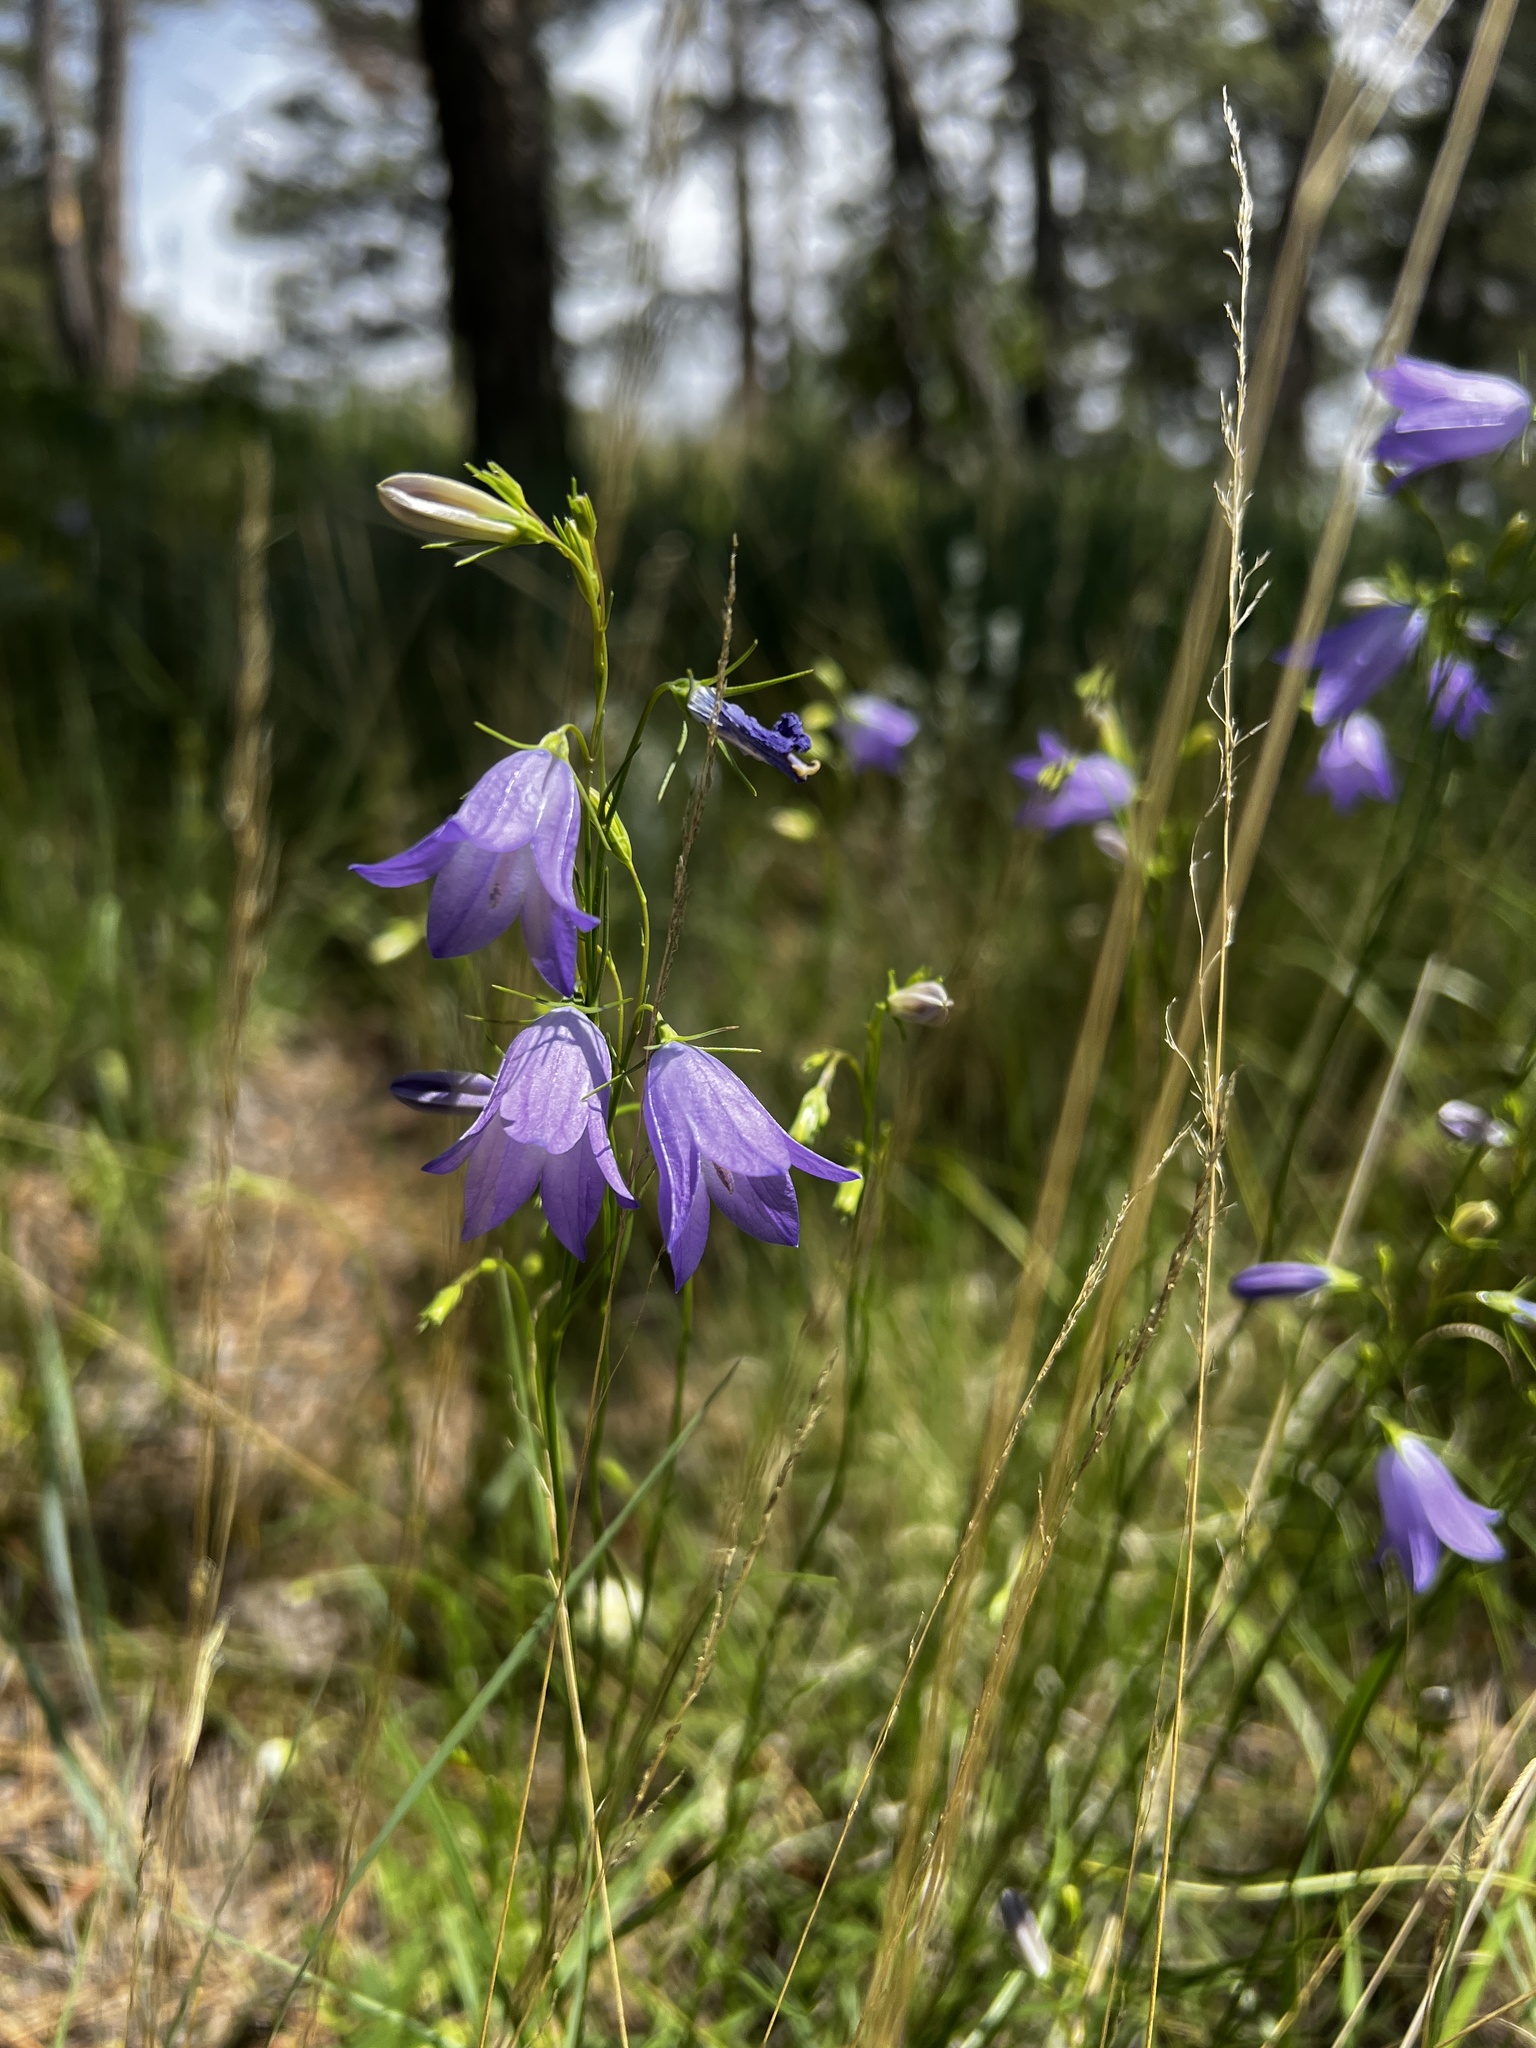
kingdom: Plantae
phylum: Tracheophyta
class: Magnoliopsida
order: Asterales
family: Campanulaceae
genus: Campanula
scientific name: Campanula petiolata
